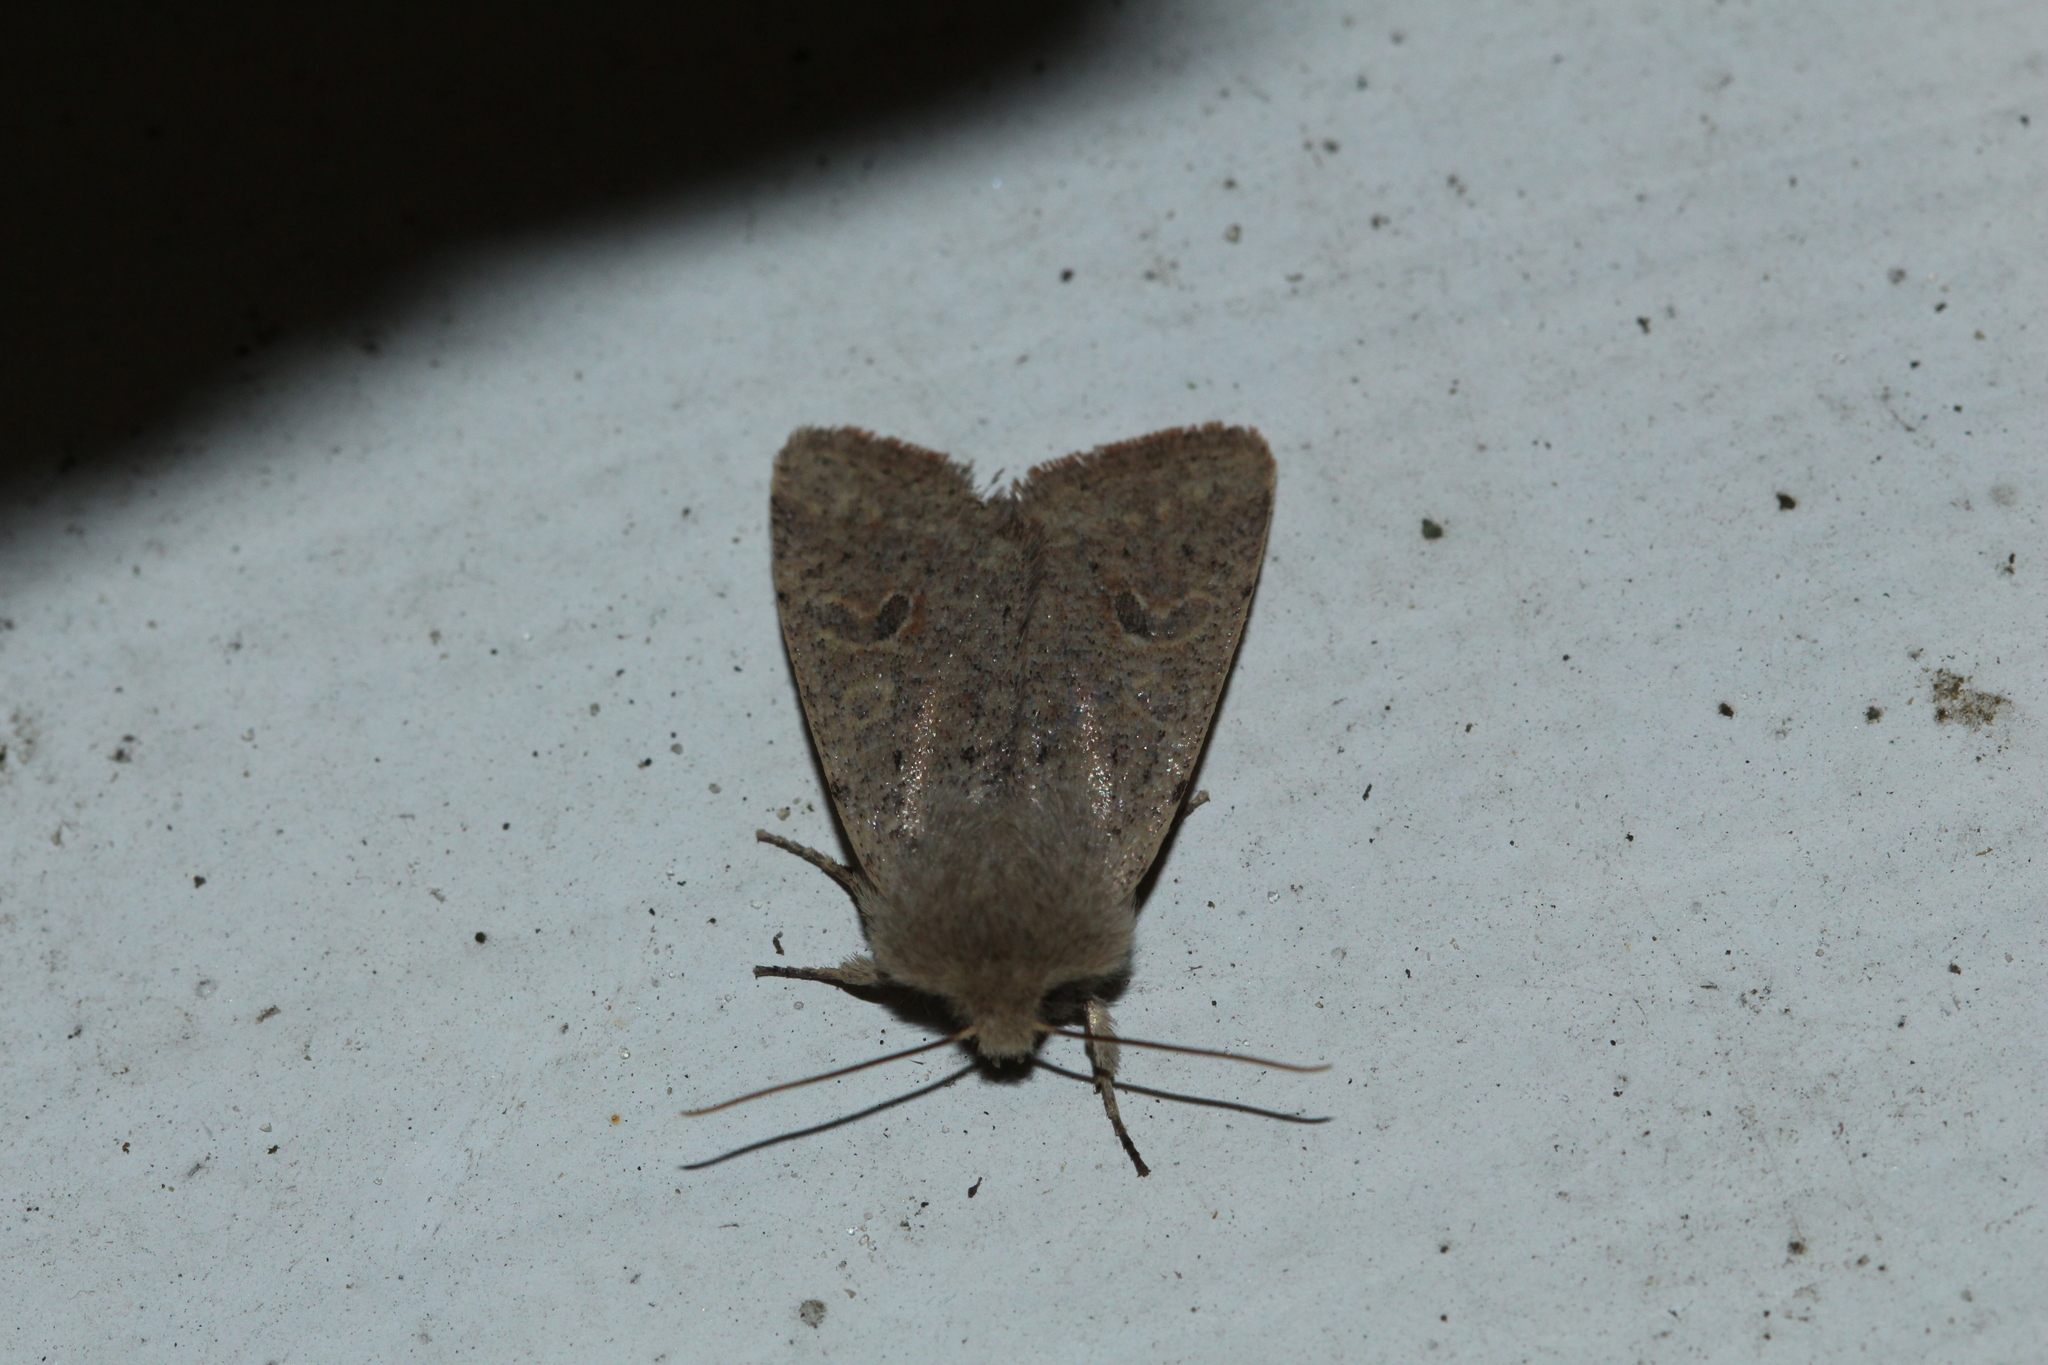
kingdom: Animalia
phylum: Arthropoda
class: Insecta
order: Lepidoptera
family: Noctuidae
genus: Orthosia
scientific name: Orthosia cruda
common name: Small quaker
